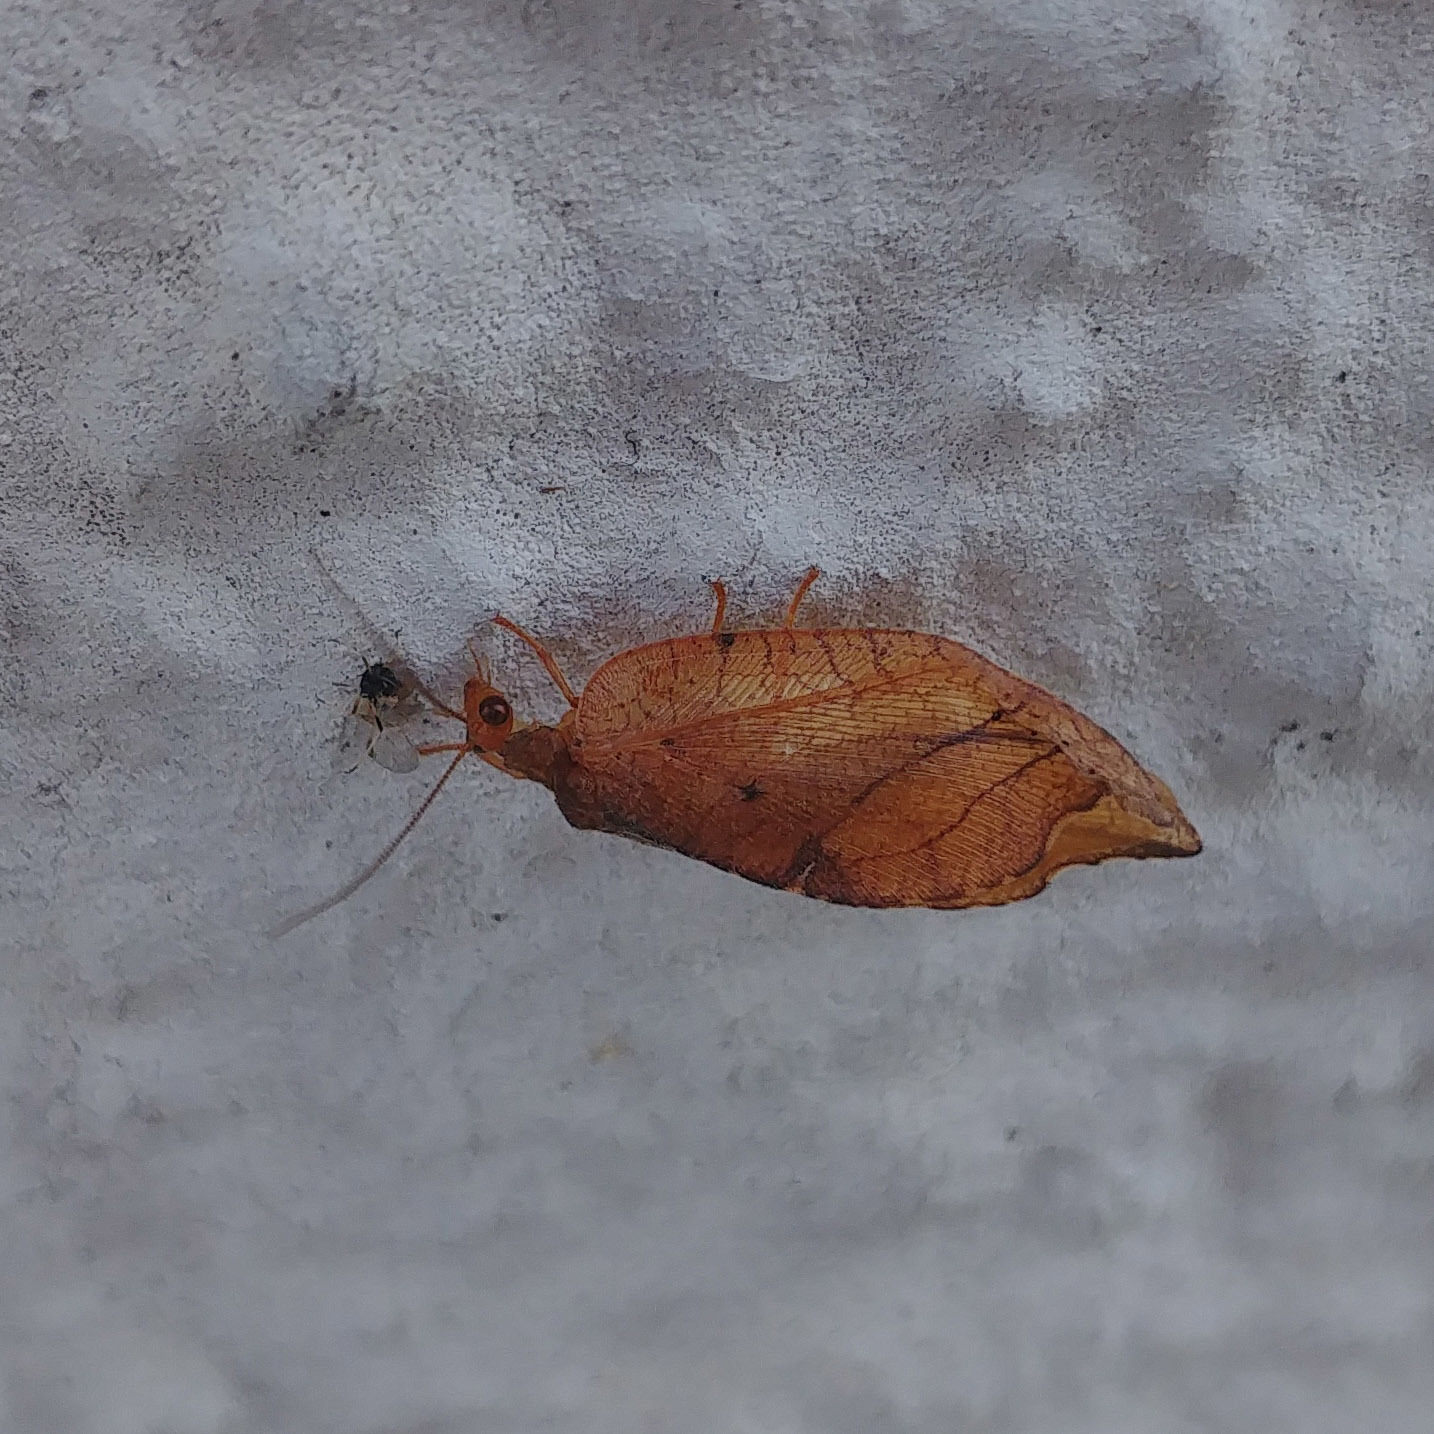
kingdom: Animalia
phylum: Arthropoda
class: Insecta
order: Neuroptera
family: Hemerobiidae
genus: Drepanepteryx
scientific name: Drepanepteryx phalaenoides
